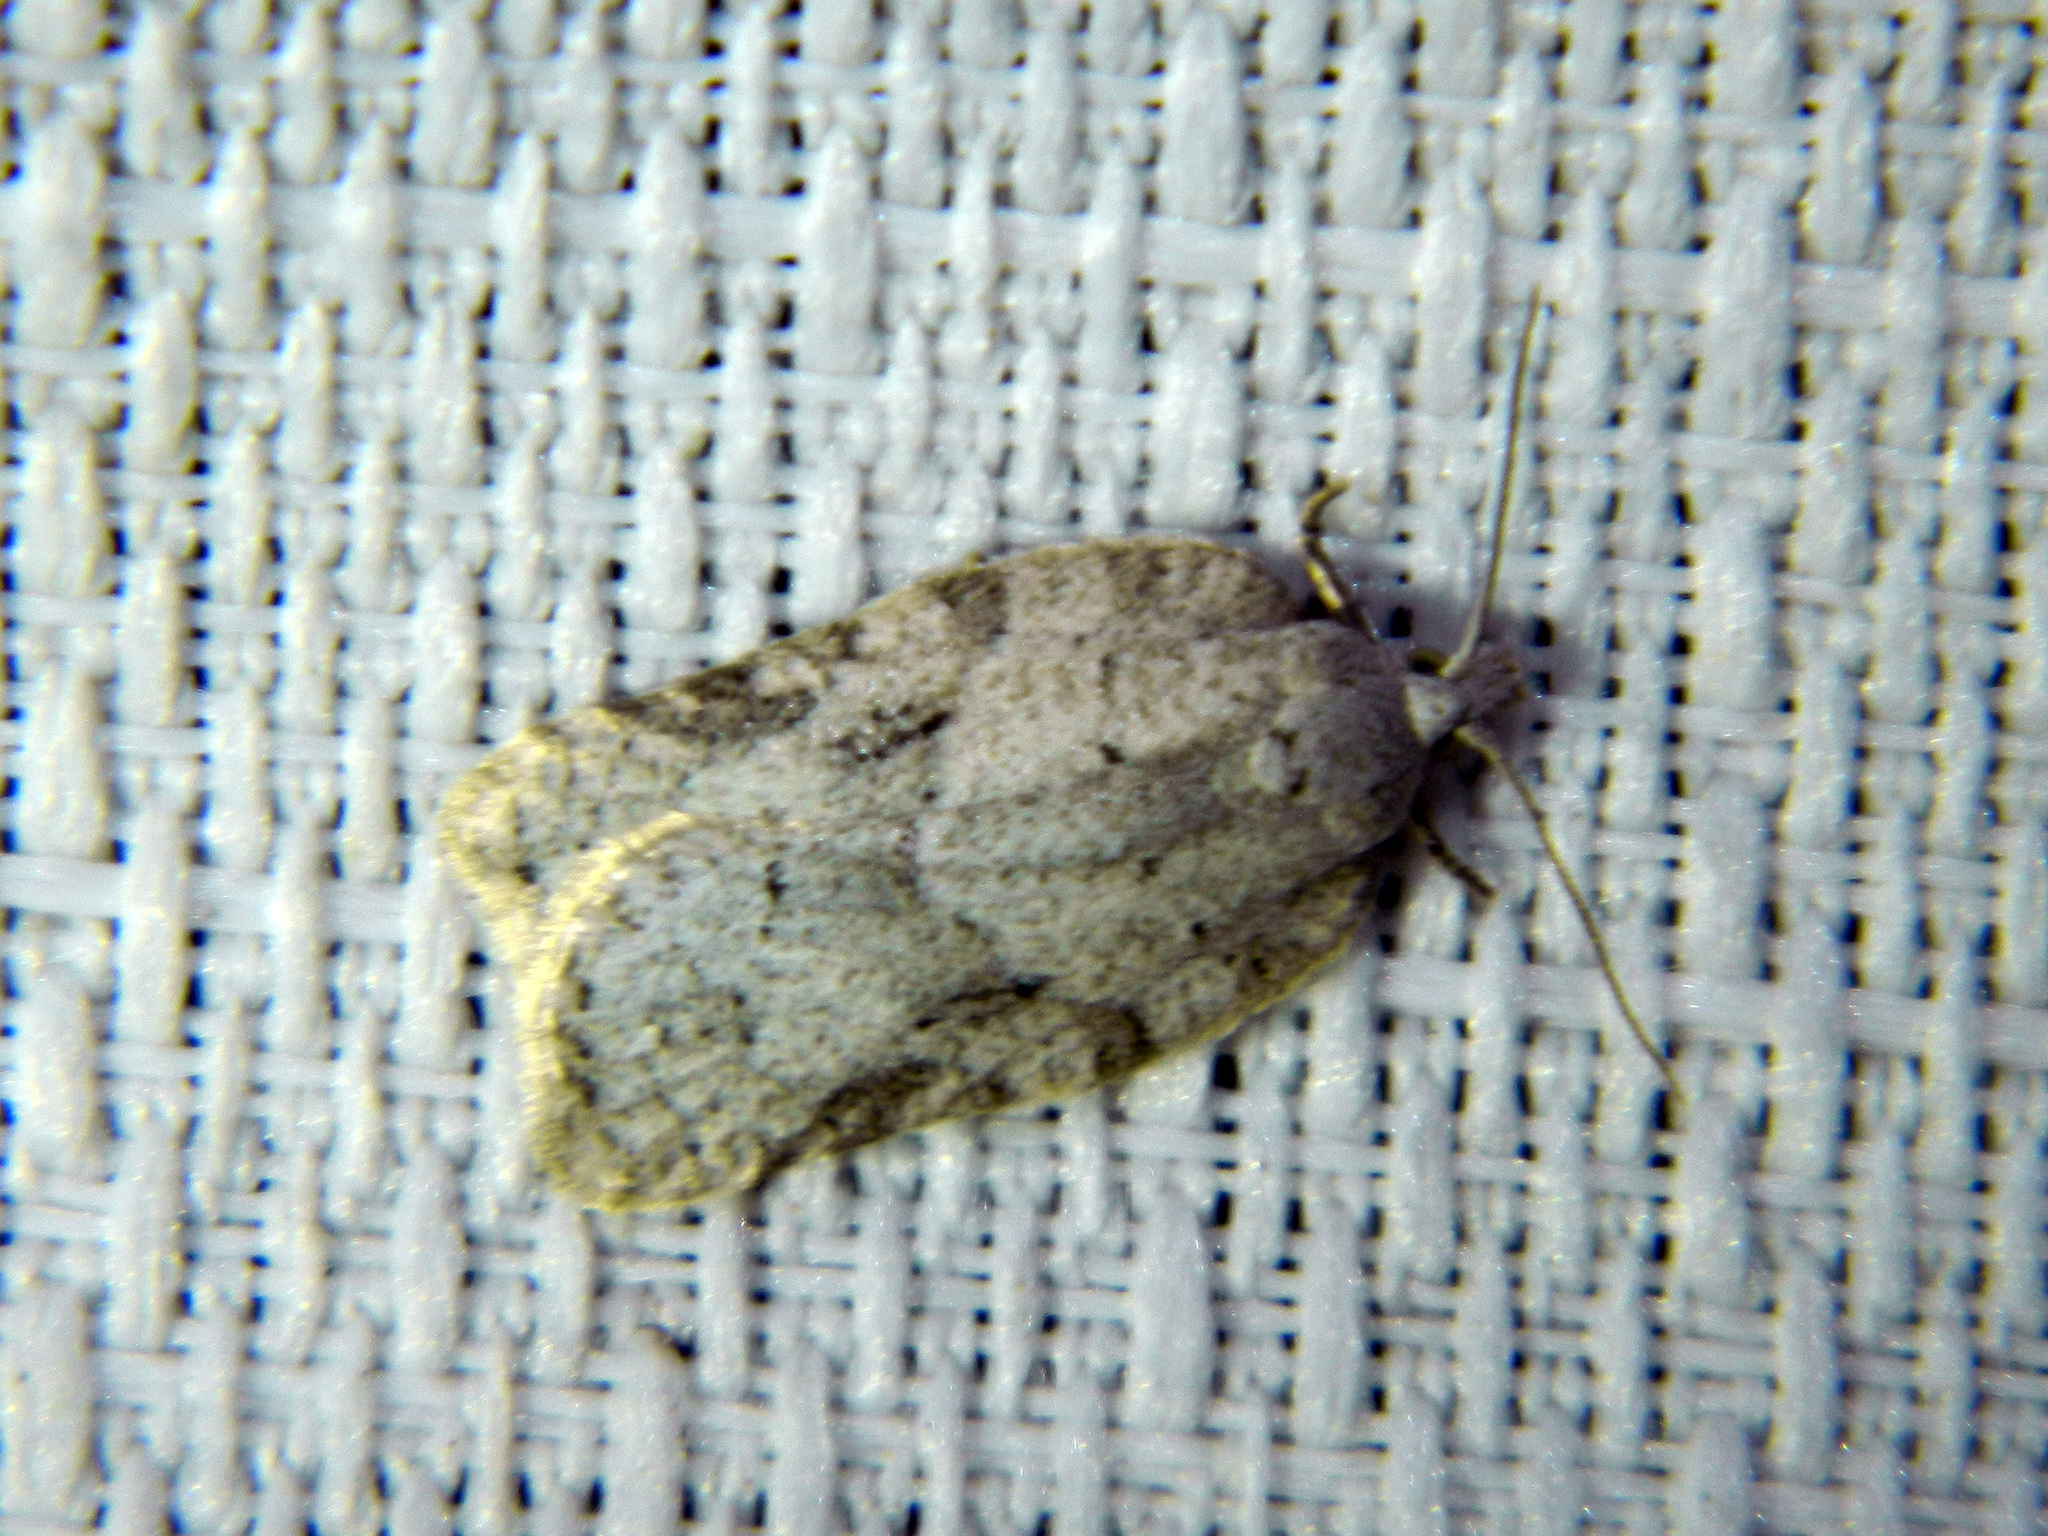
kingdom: Animalia
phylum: Arthropoda
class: Insecta
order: Lepidoptera
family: Tortricidae
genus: Acleris
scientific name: Acleris placidana
